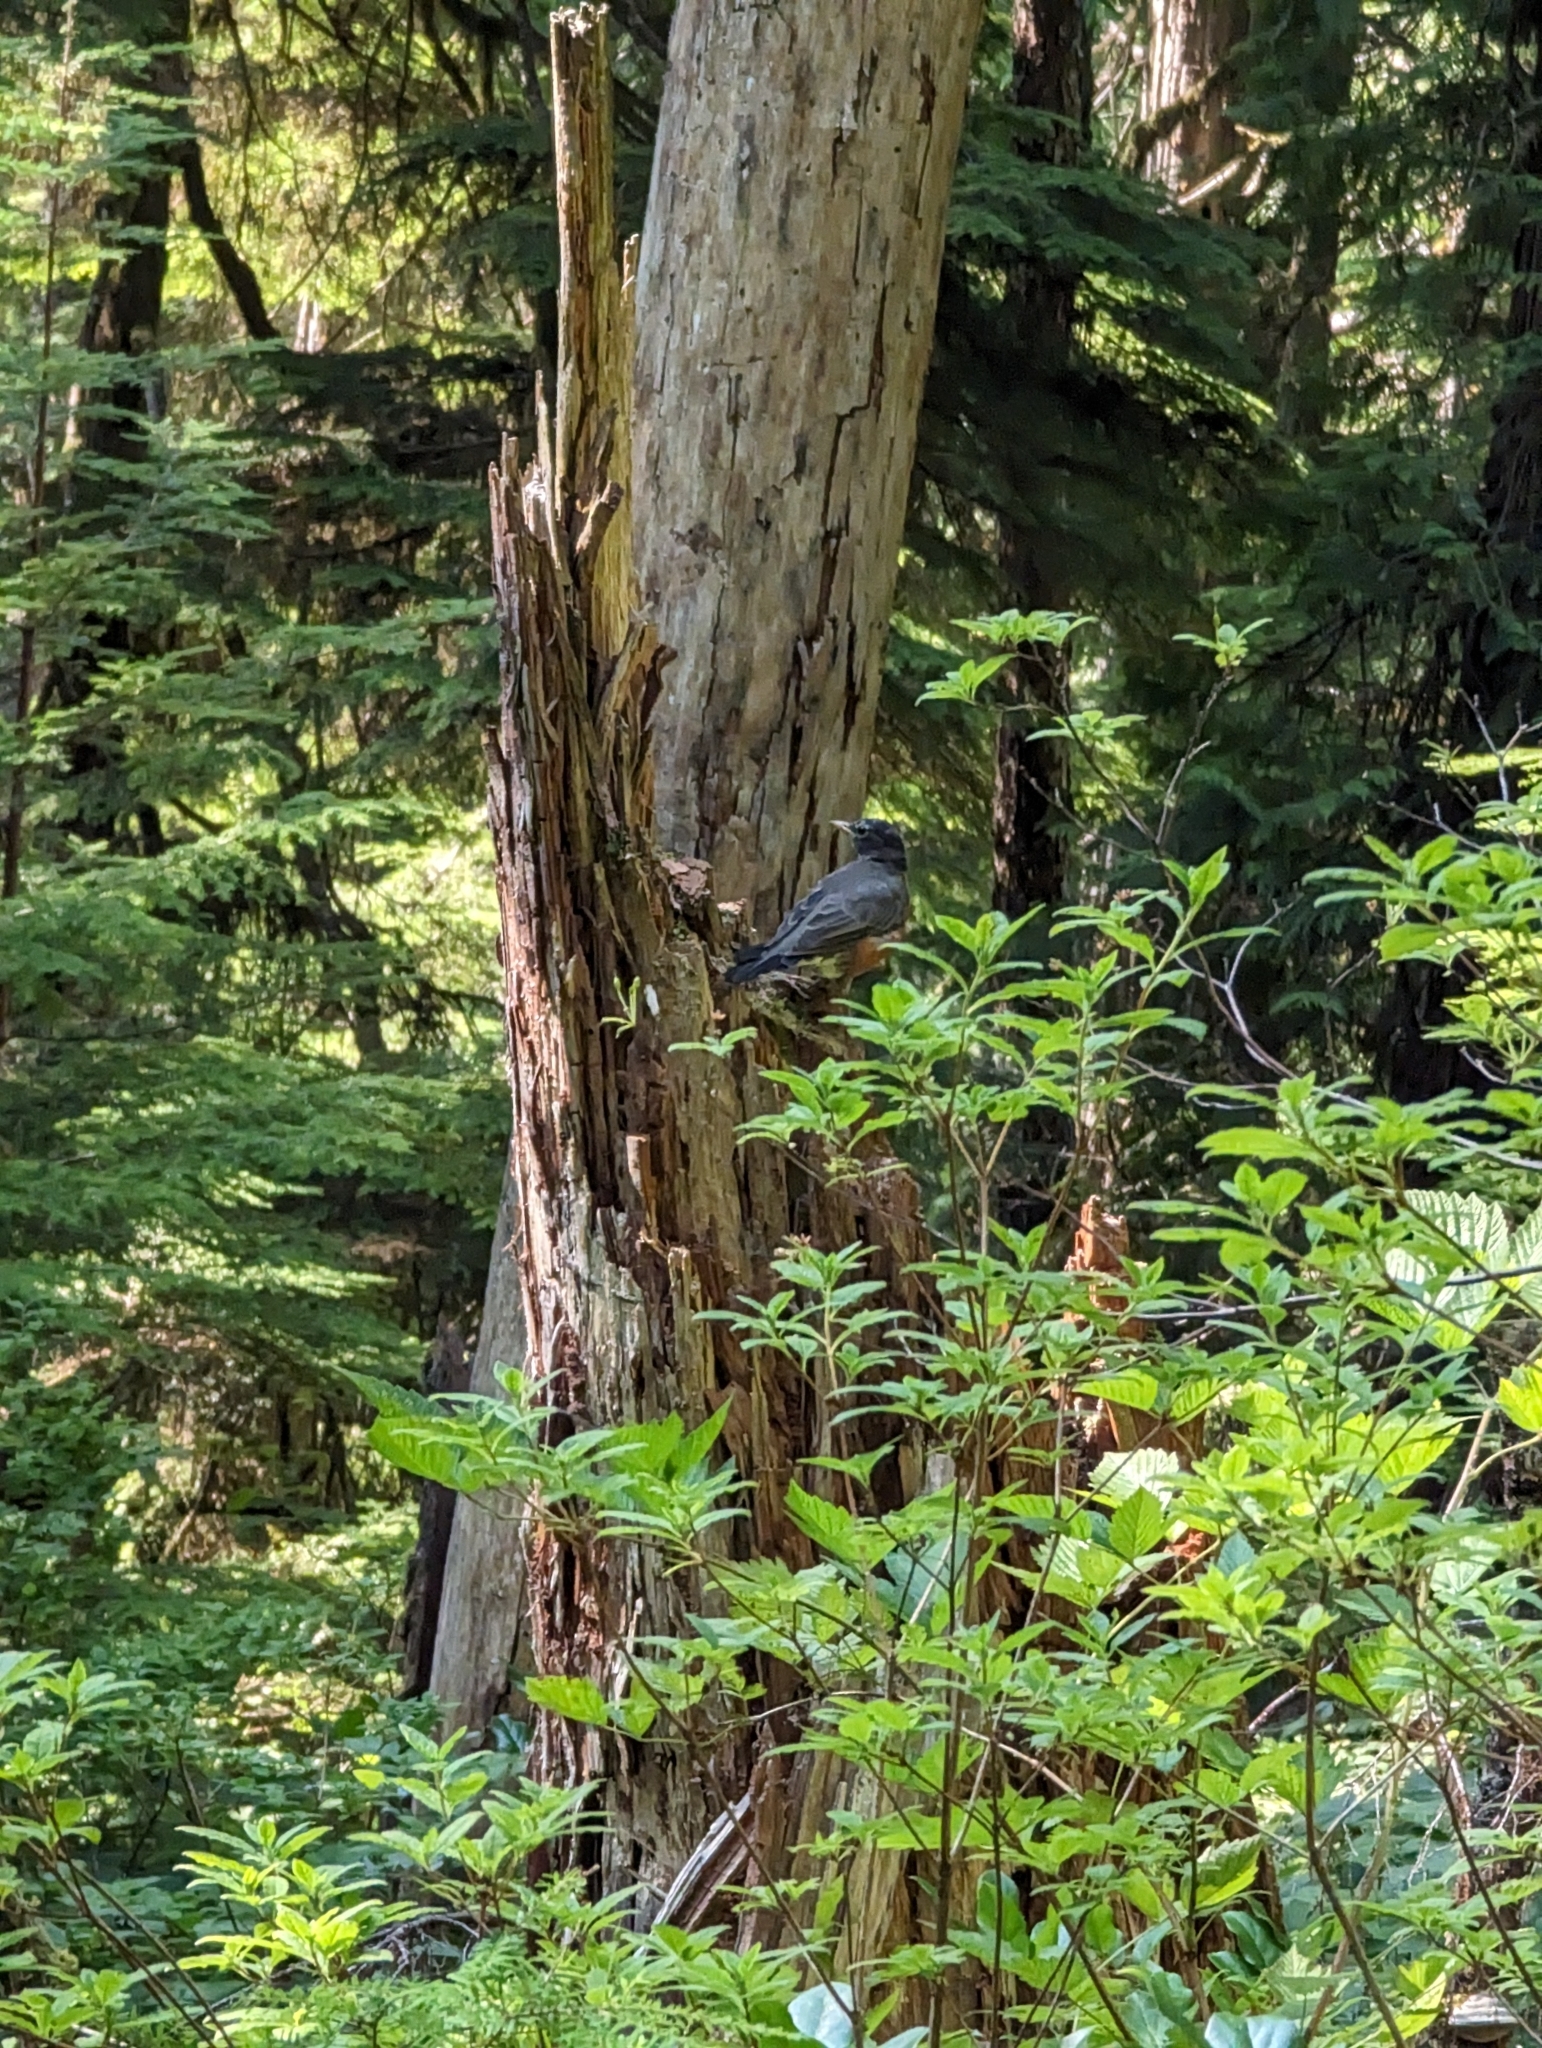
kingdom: Animalia
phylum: Chordata
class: Aves
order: Passeriformes
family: Turdidae
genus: Turdus
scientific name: Turdus migratorius
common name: American robin
